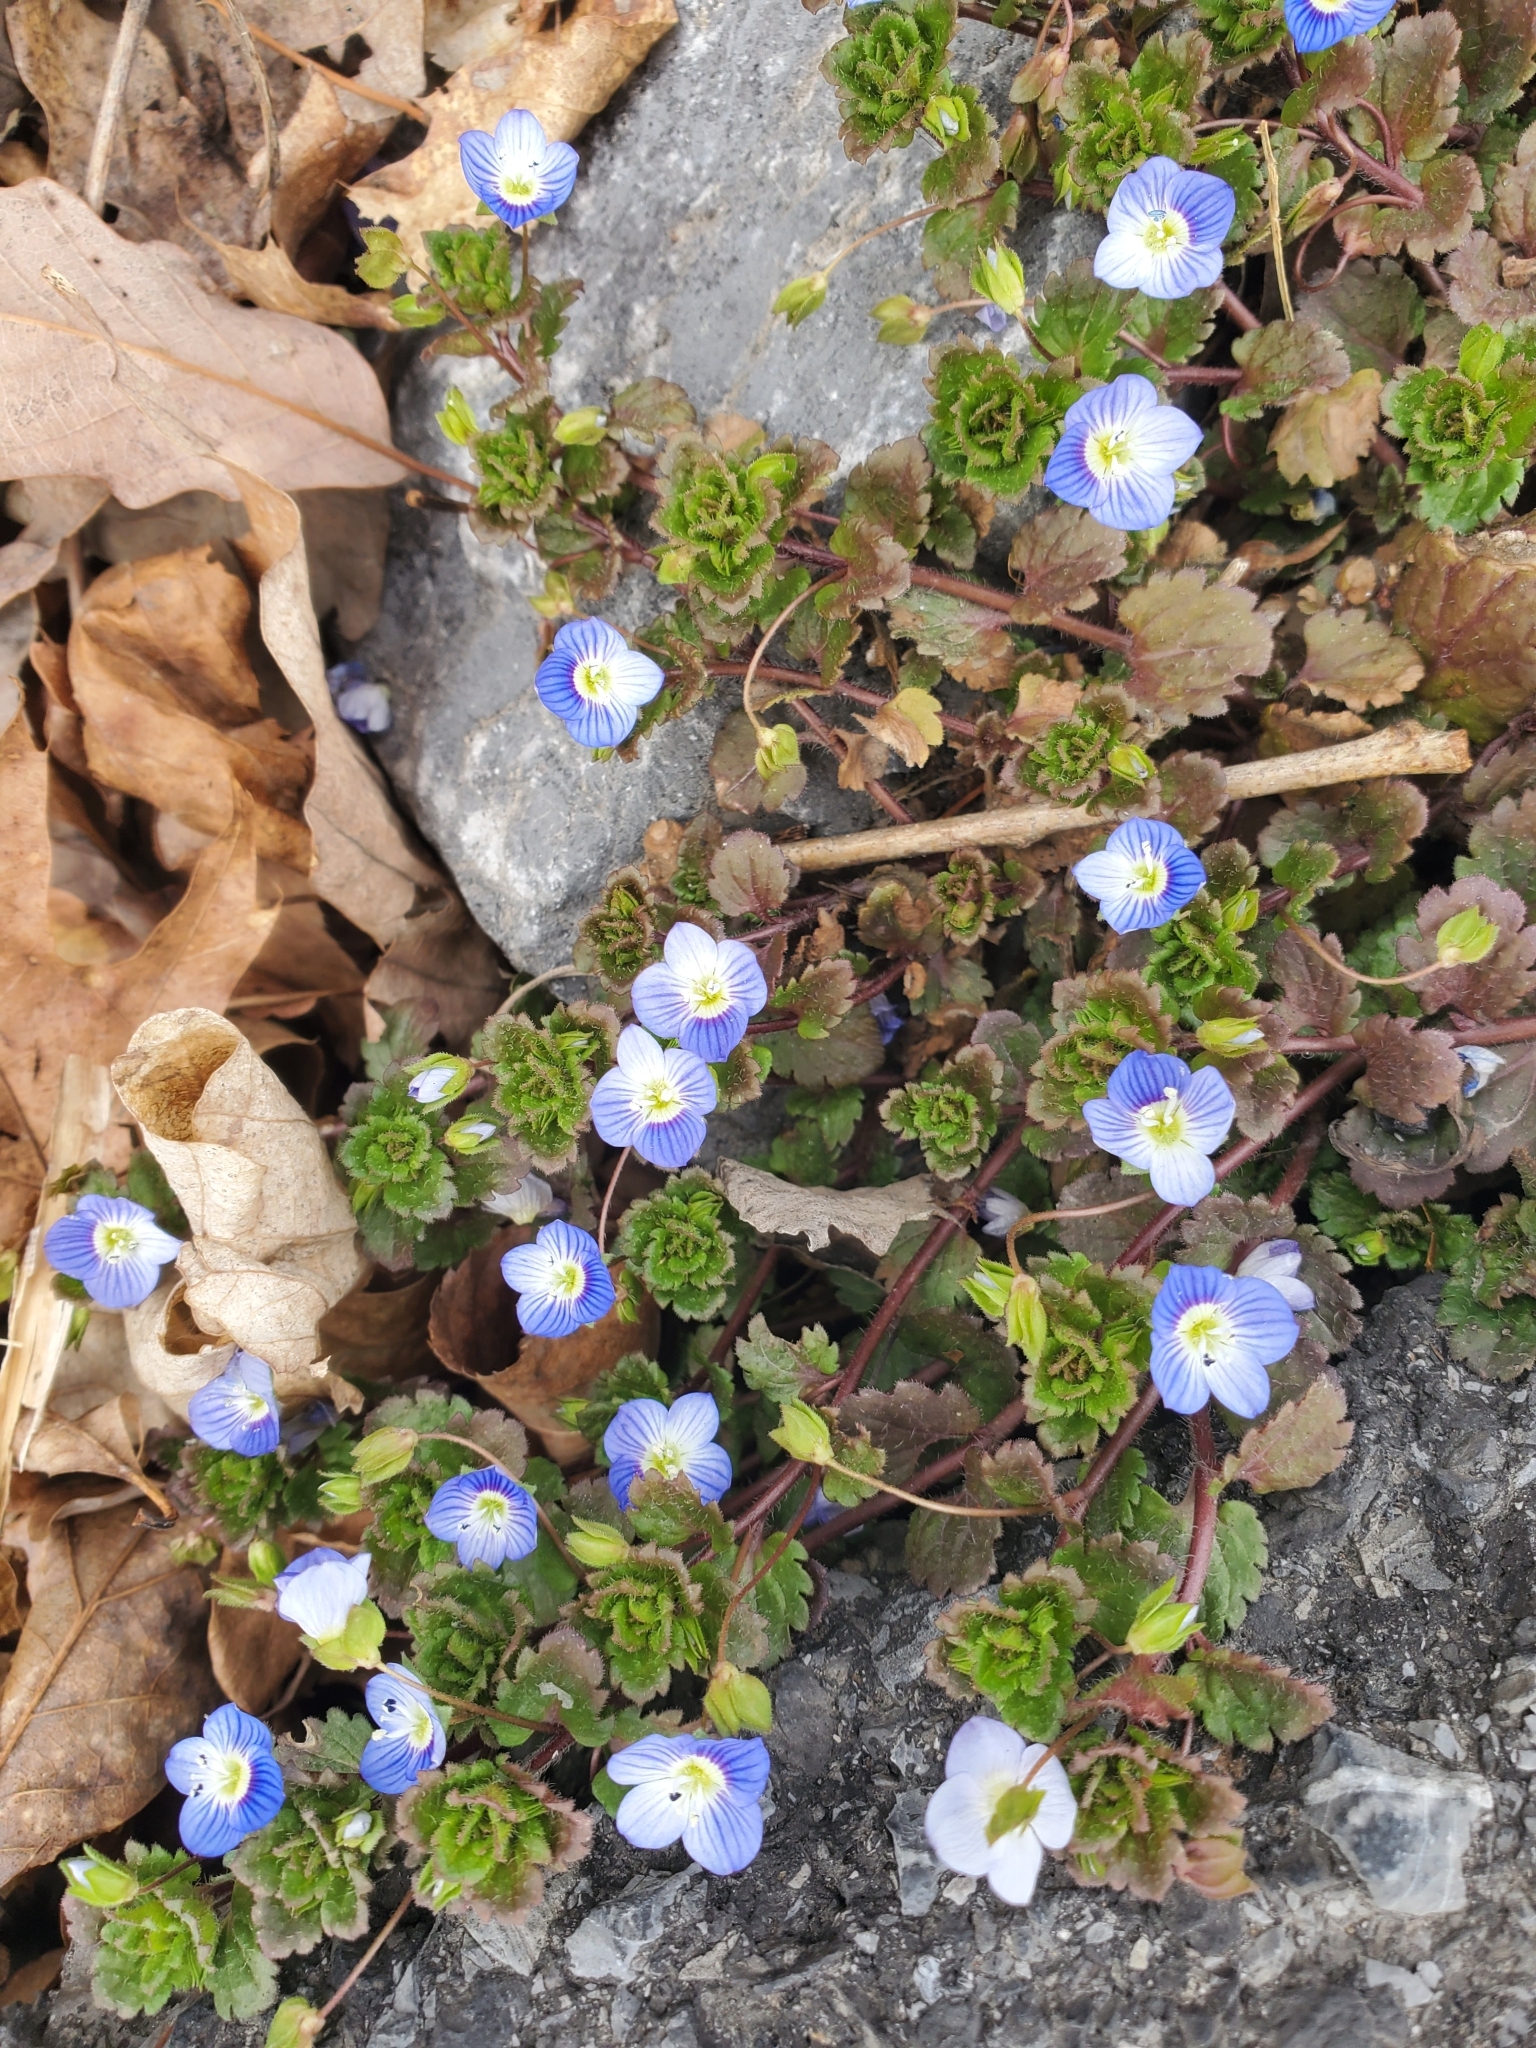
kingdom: Plantae
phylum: Tracheophyta
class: Magnoliopsida
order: Lamiales
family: Plantaginaceae
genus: Veronica
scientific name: Veronica persica
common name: Common field-speedwell
